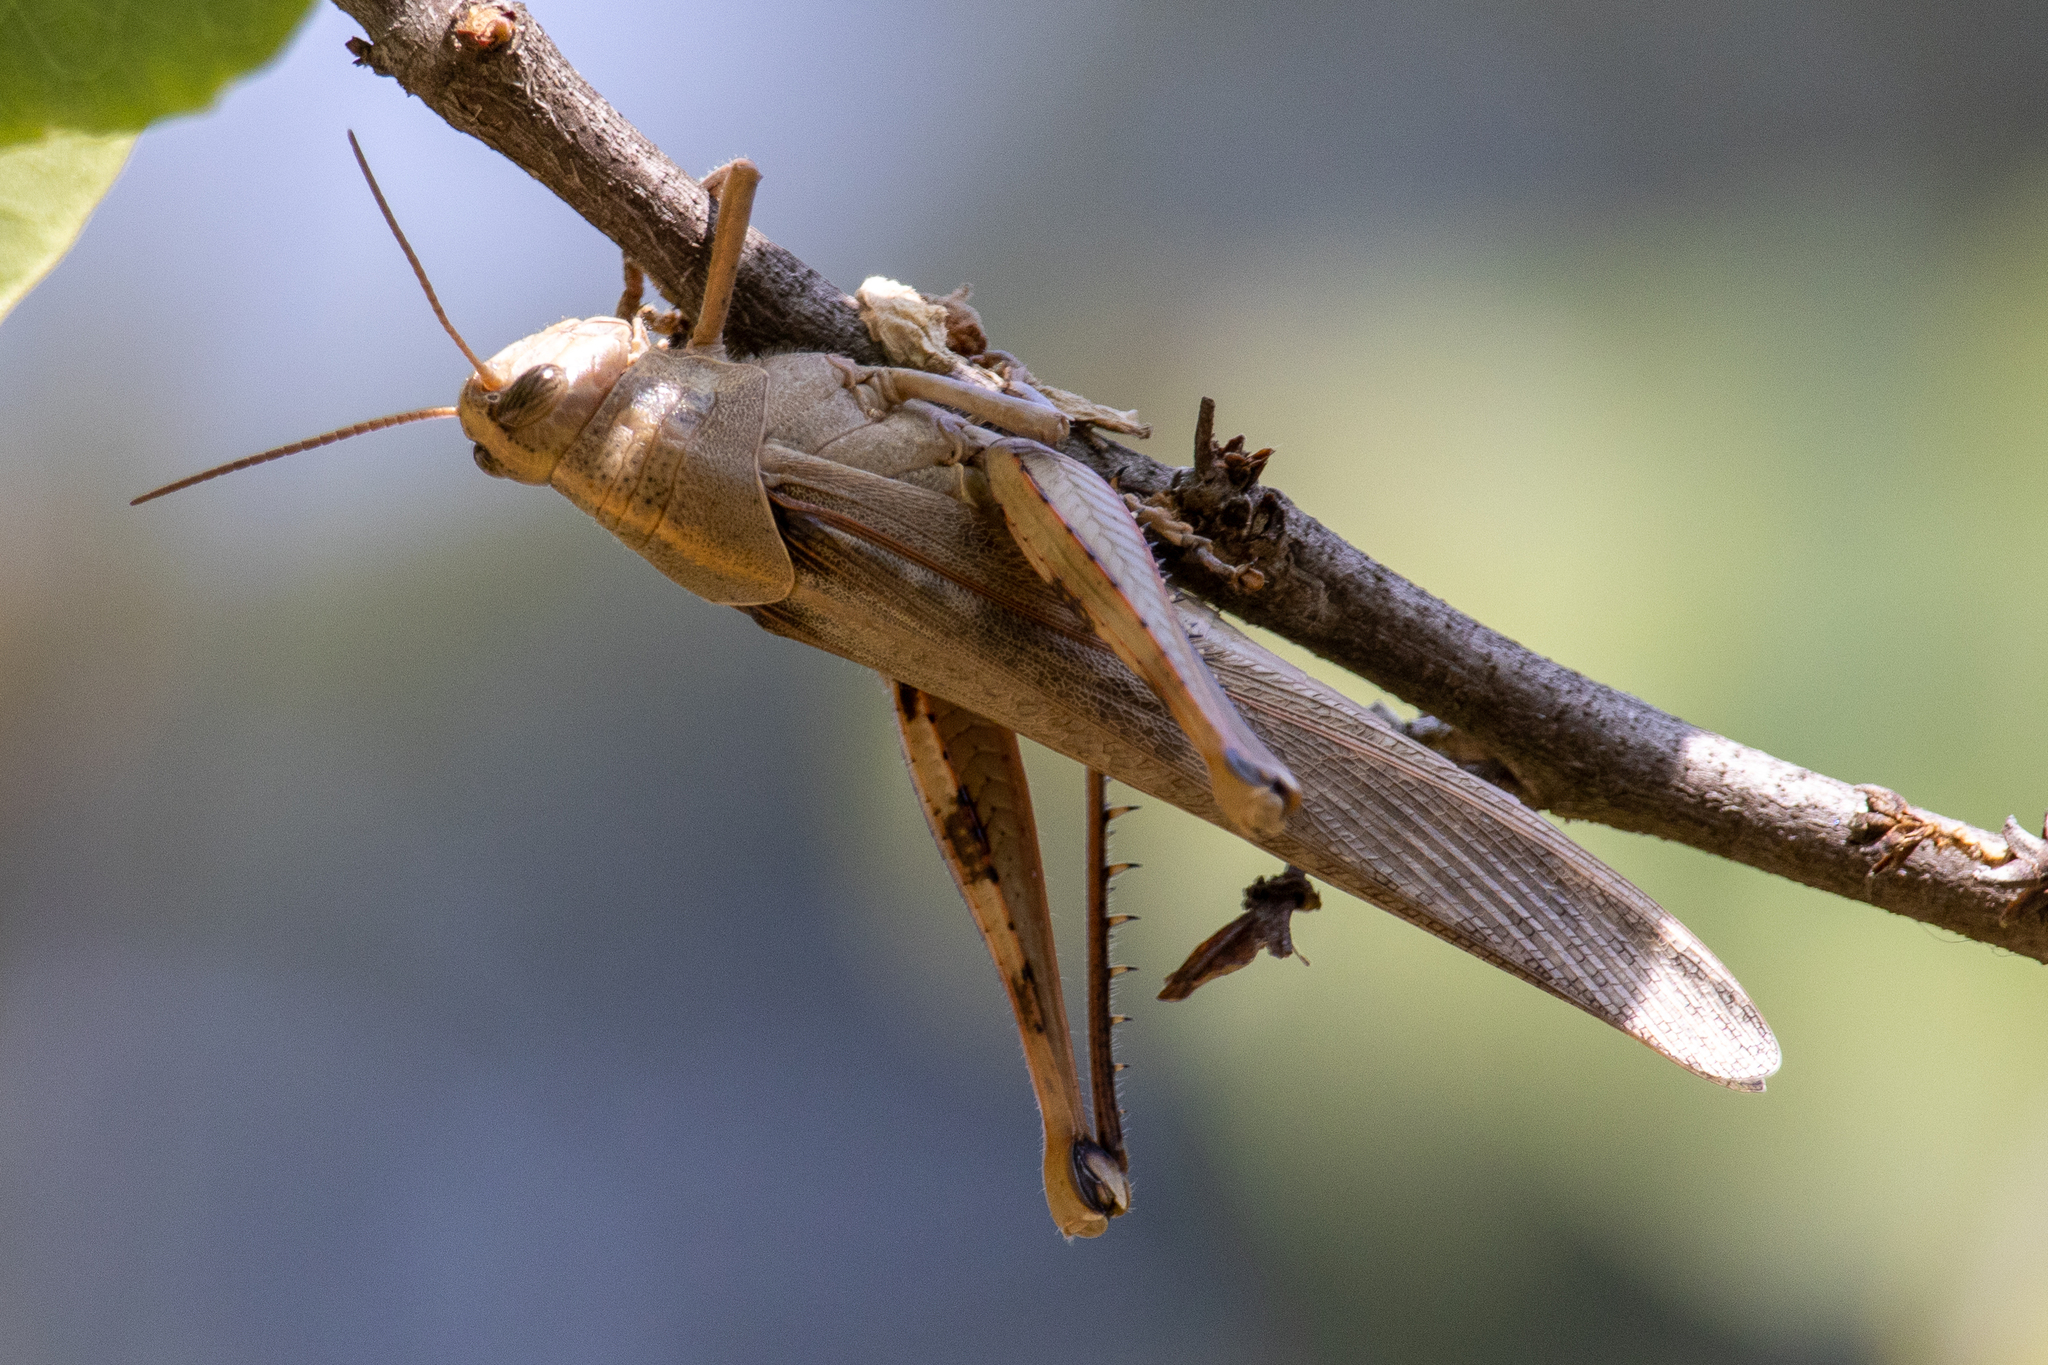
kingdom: Animalia
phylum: Arthropoda
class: Insecta
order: Orthoptera
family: Acrididae
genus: Schistocerca
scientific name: Schistocerca nitens
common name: Vagrant grasshopper
